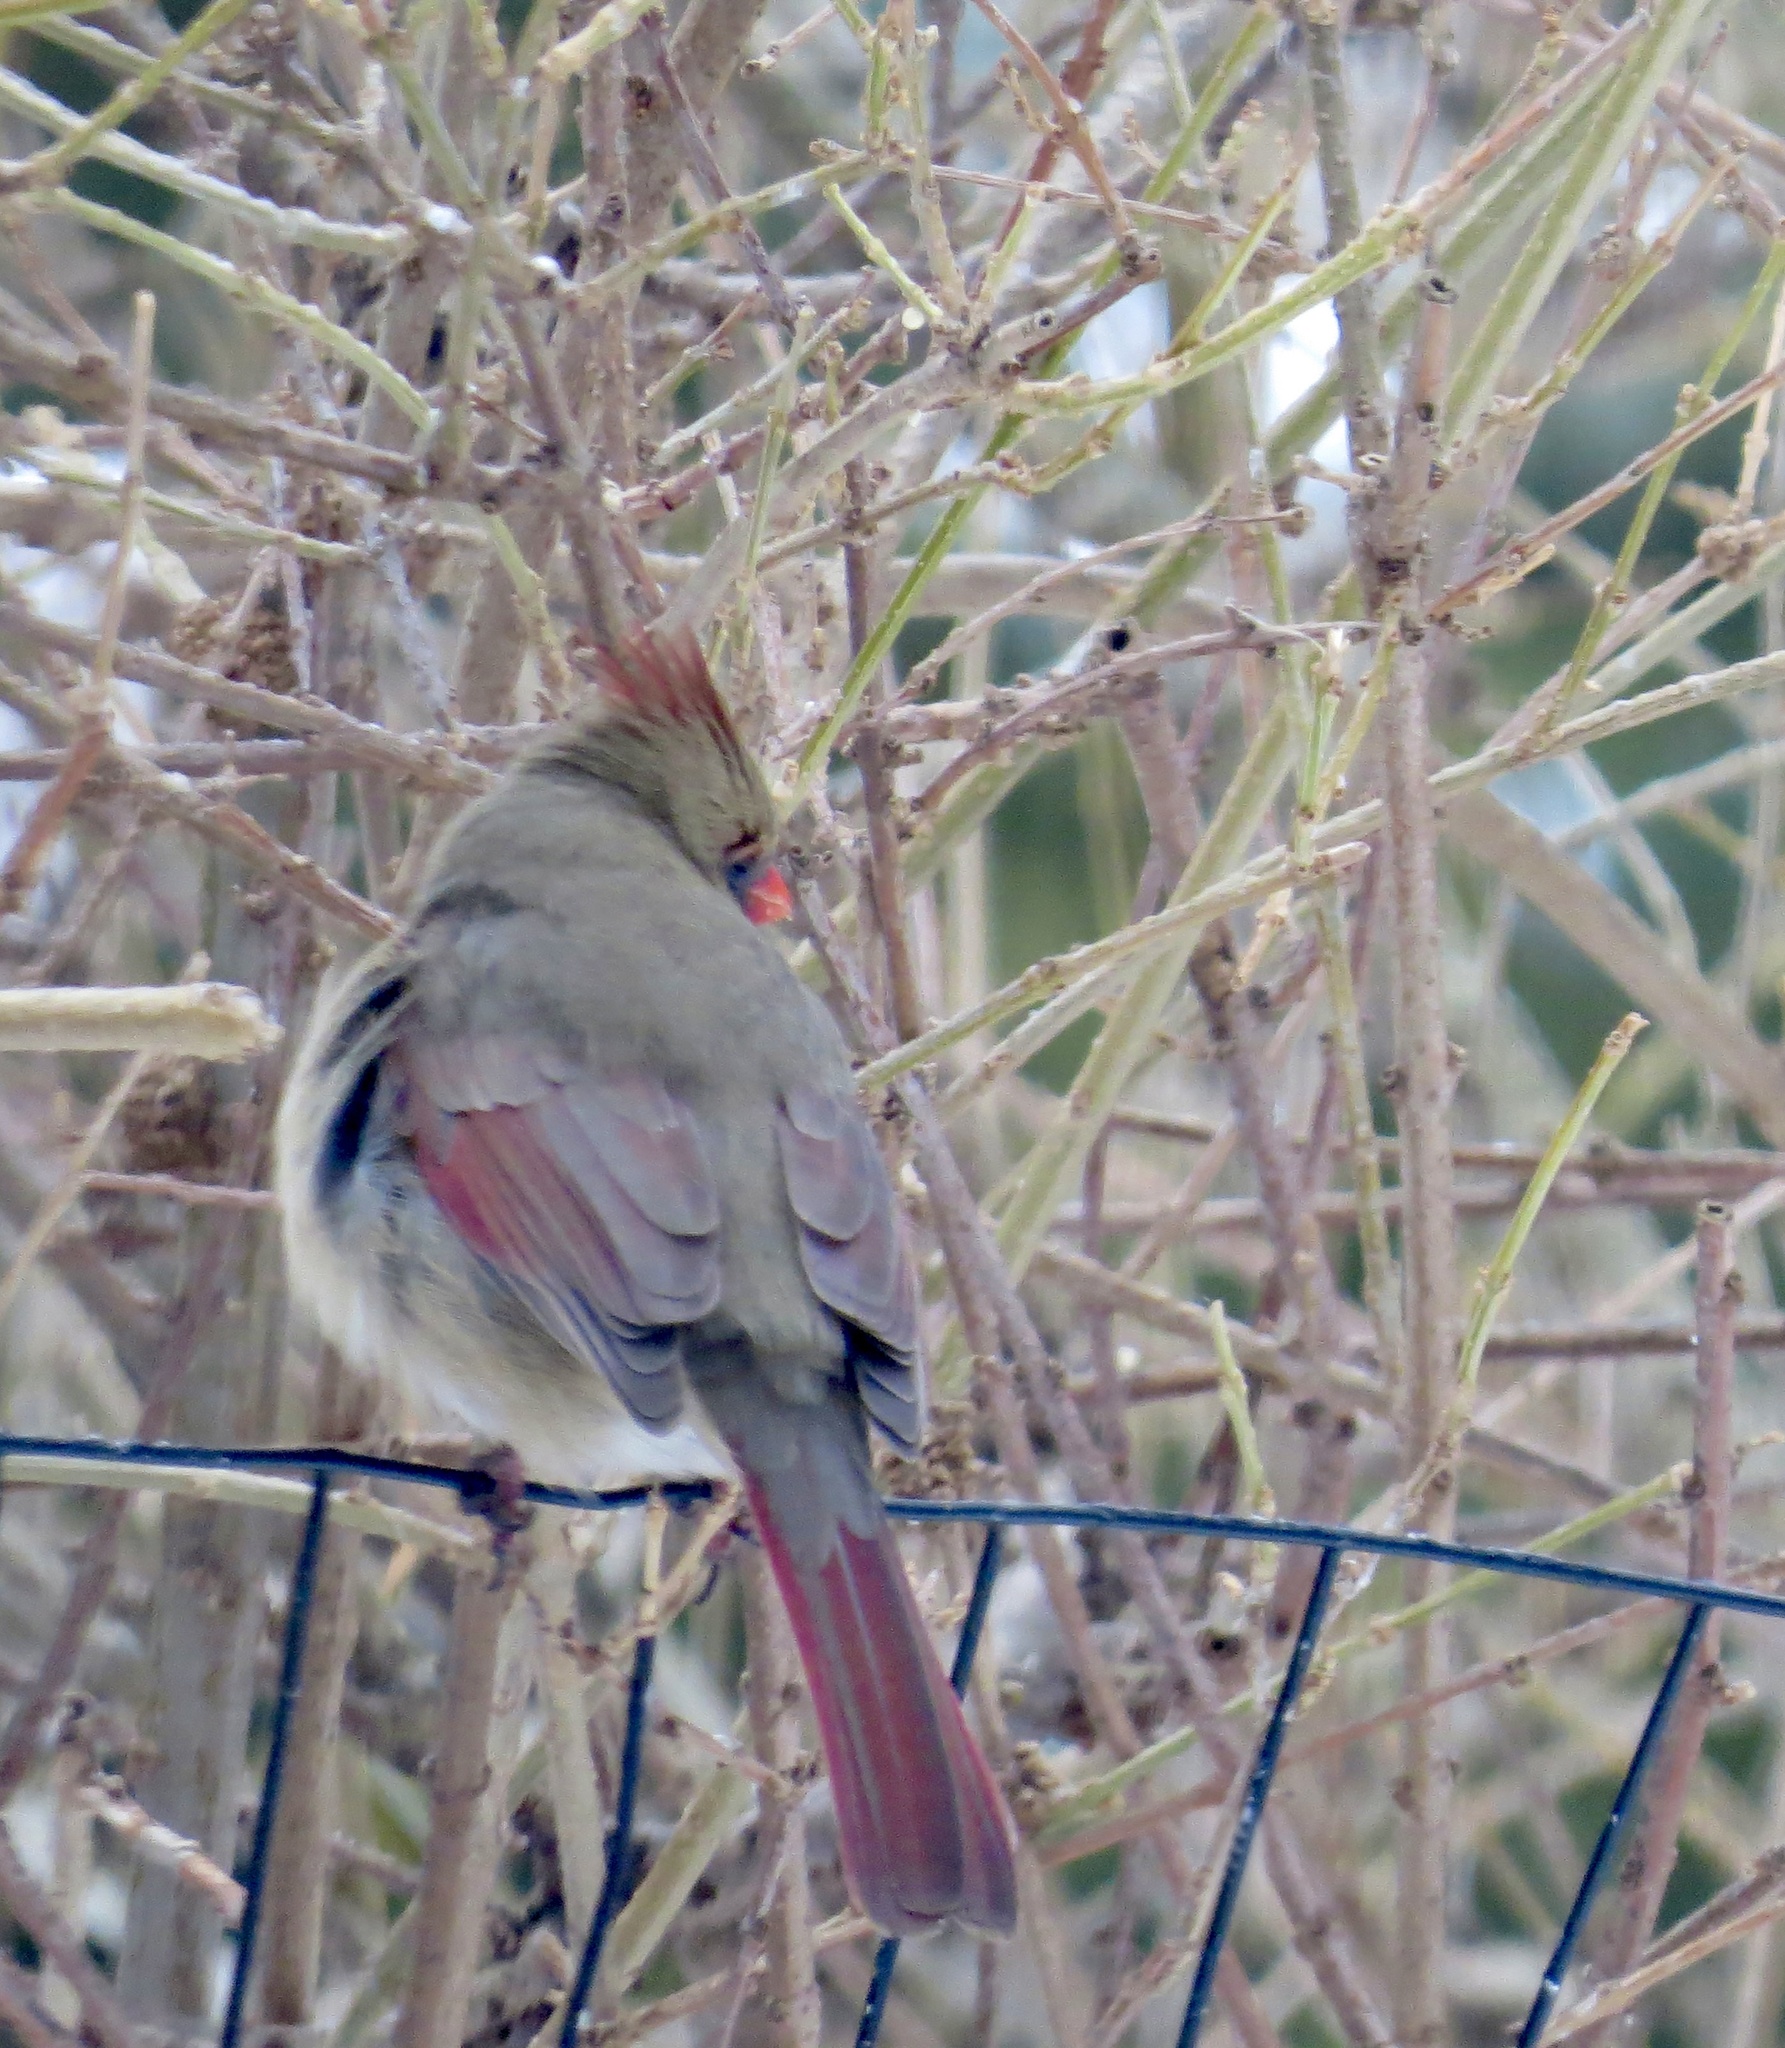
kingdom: Animalia
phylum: Chordata
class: Aves
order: Passeriformes
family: Cardinalidae
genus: Cardinalis
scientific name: Cardinalis cardinalis
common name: Northern cardinal
